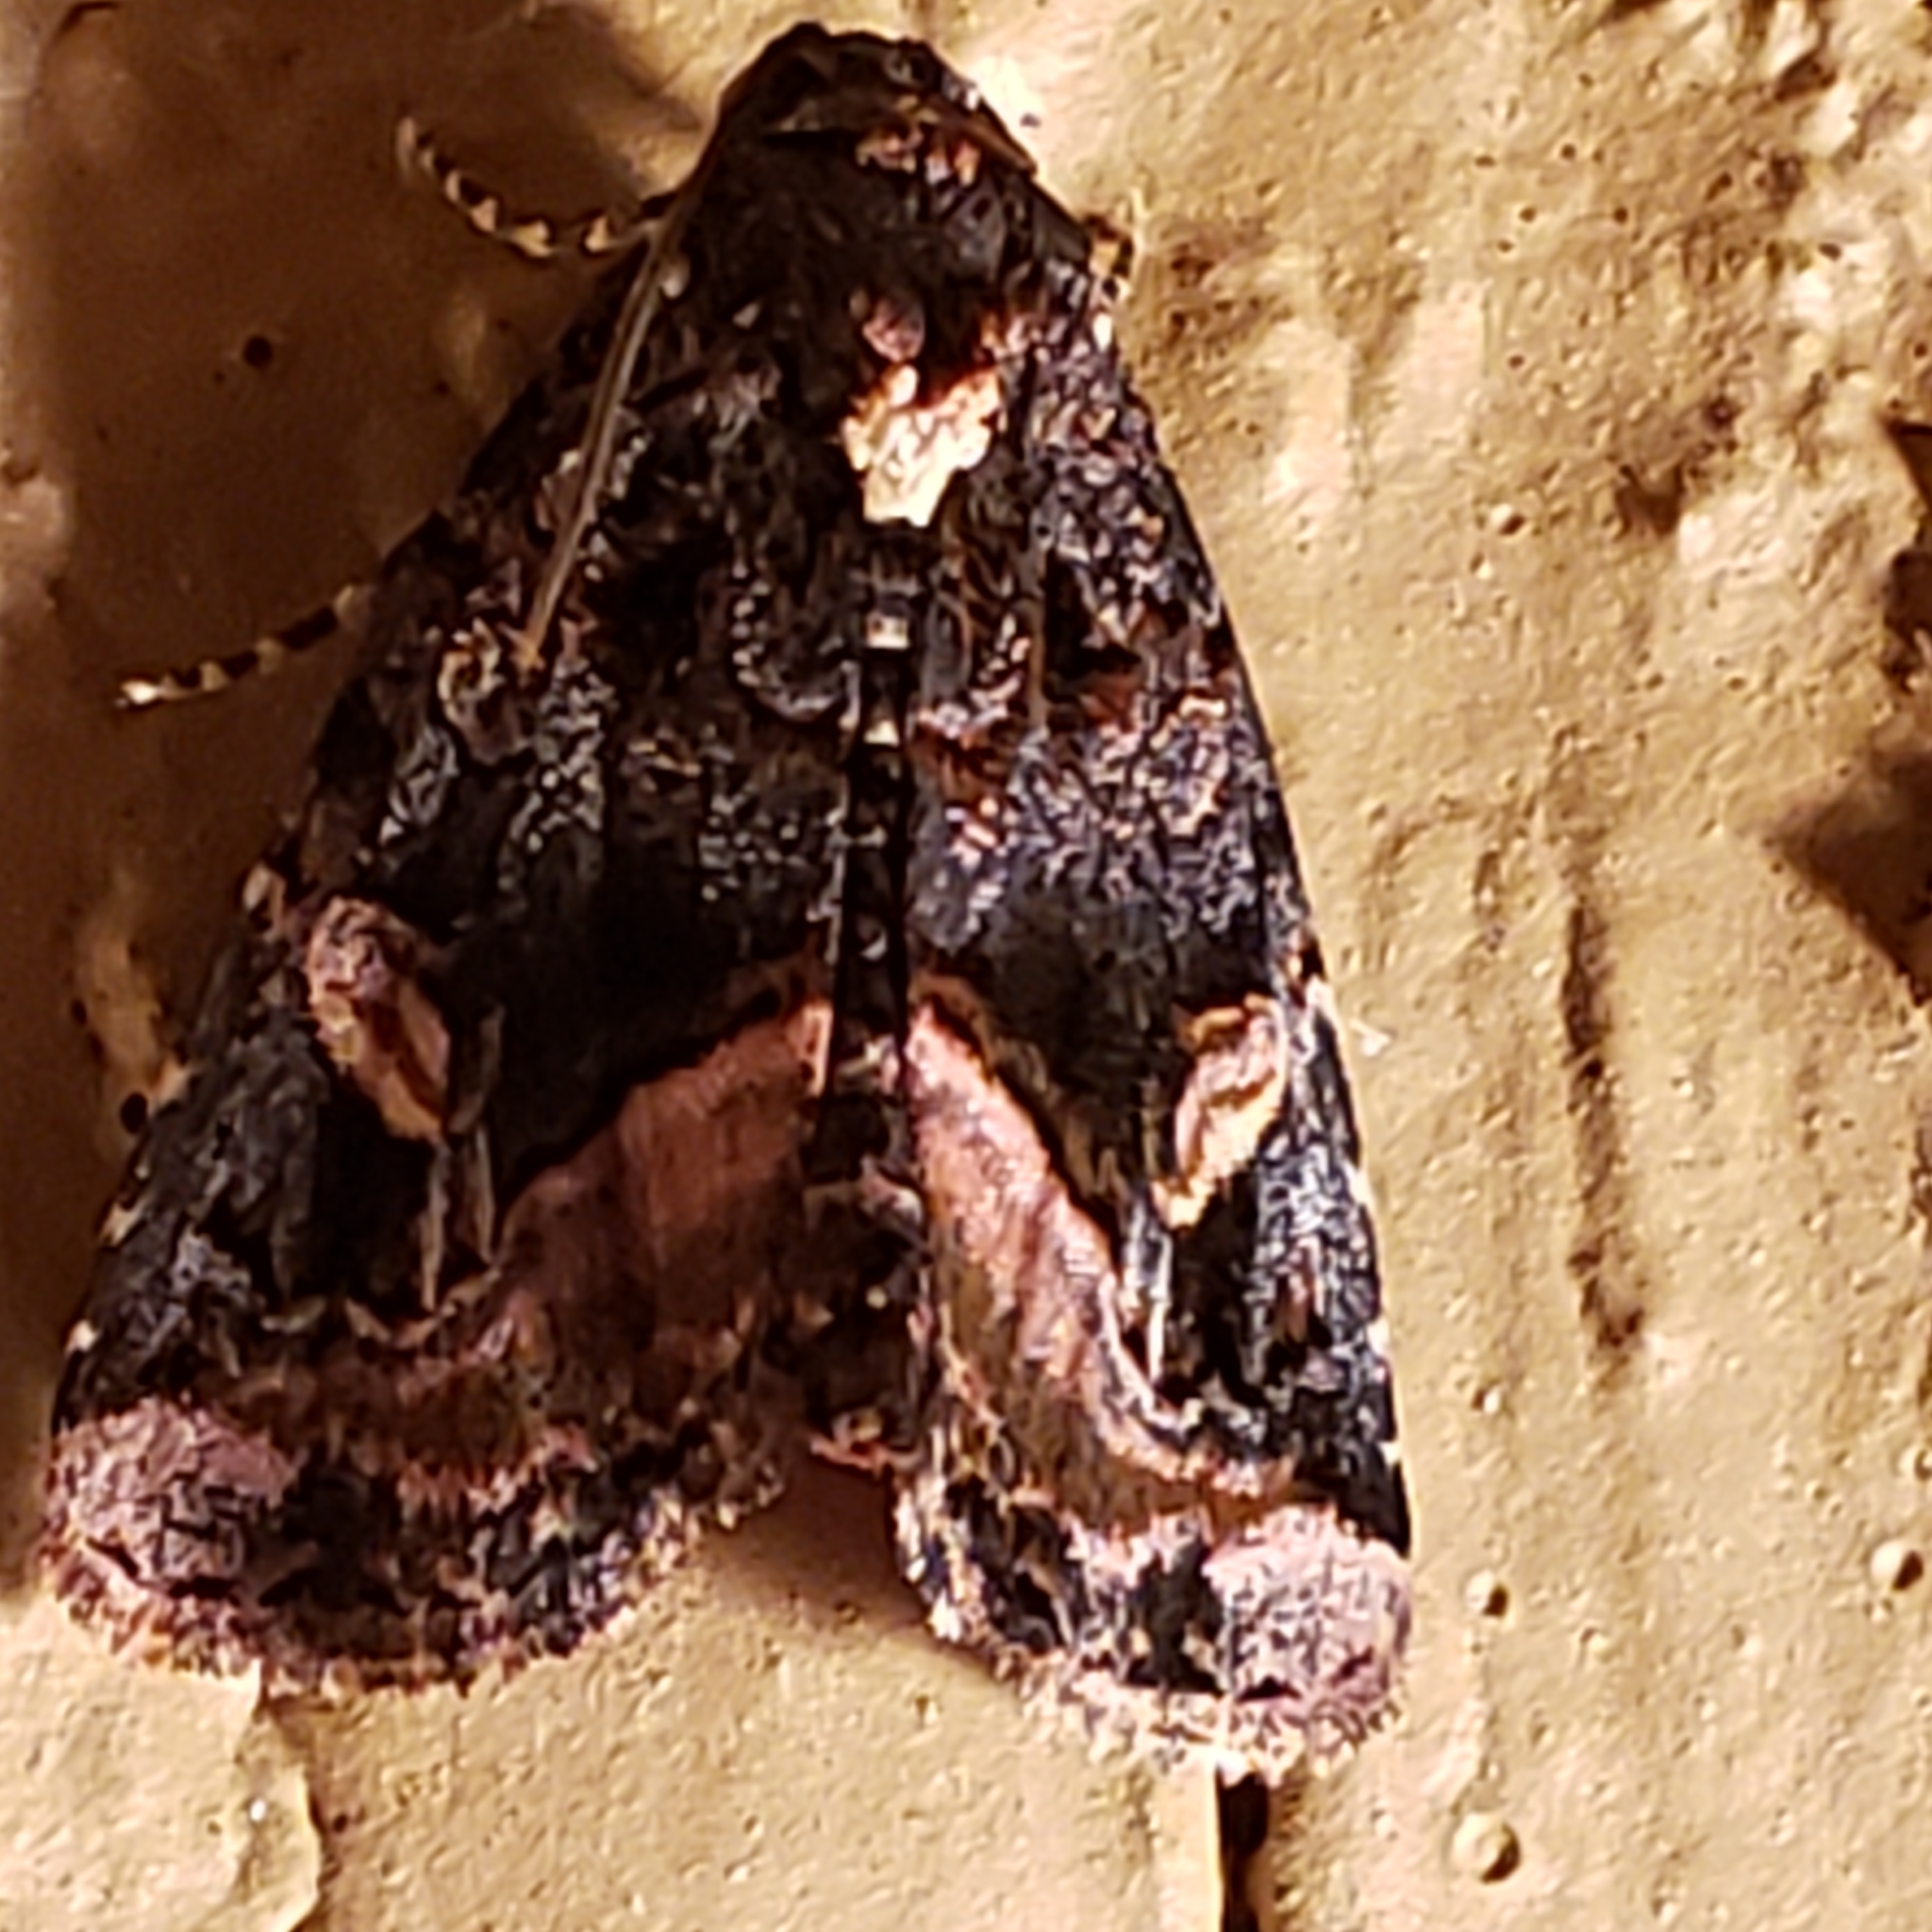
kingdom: Animalia
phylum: Arthropoda
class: Insecta
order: Lepidoptera
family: Noctuidae
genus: Homophoberia
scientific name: Homophoberia apicosa
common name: Black wedge-spot
